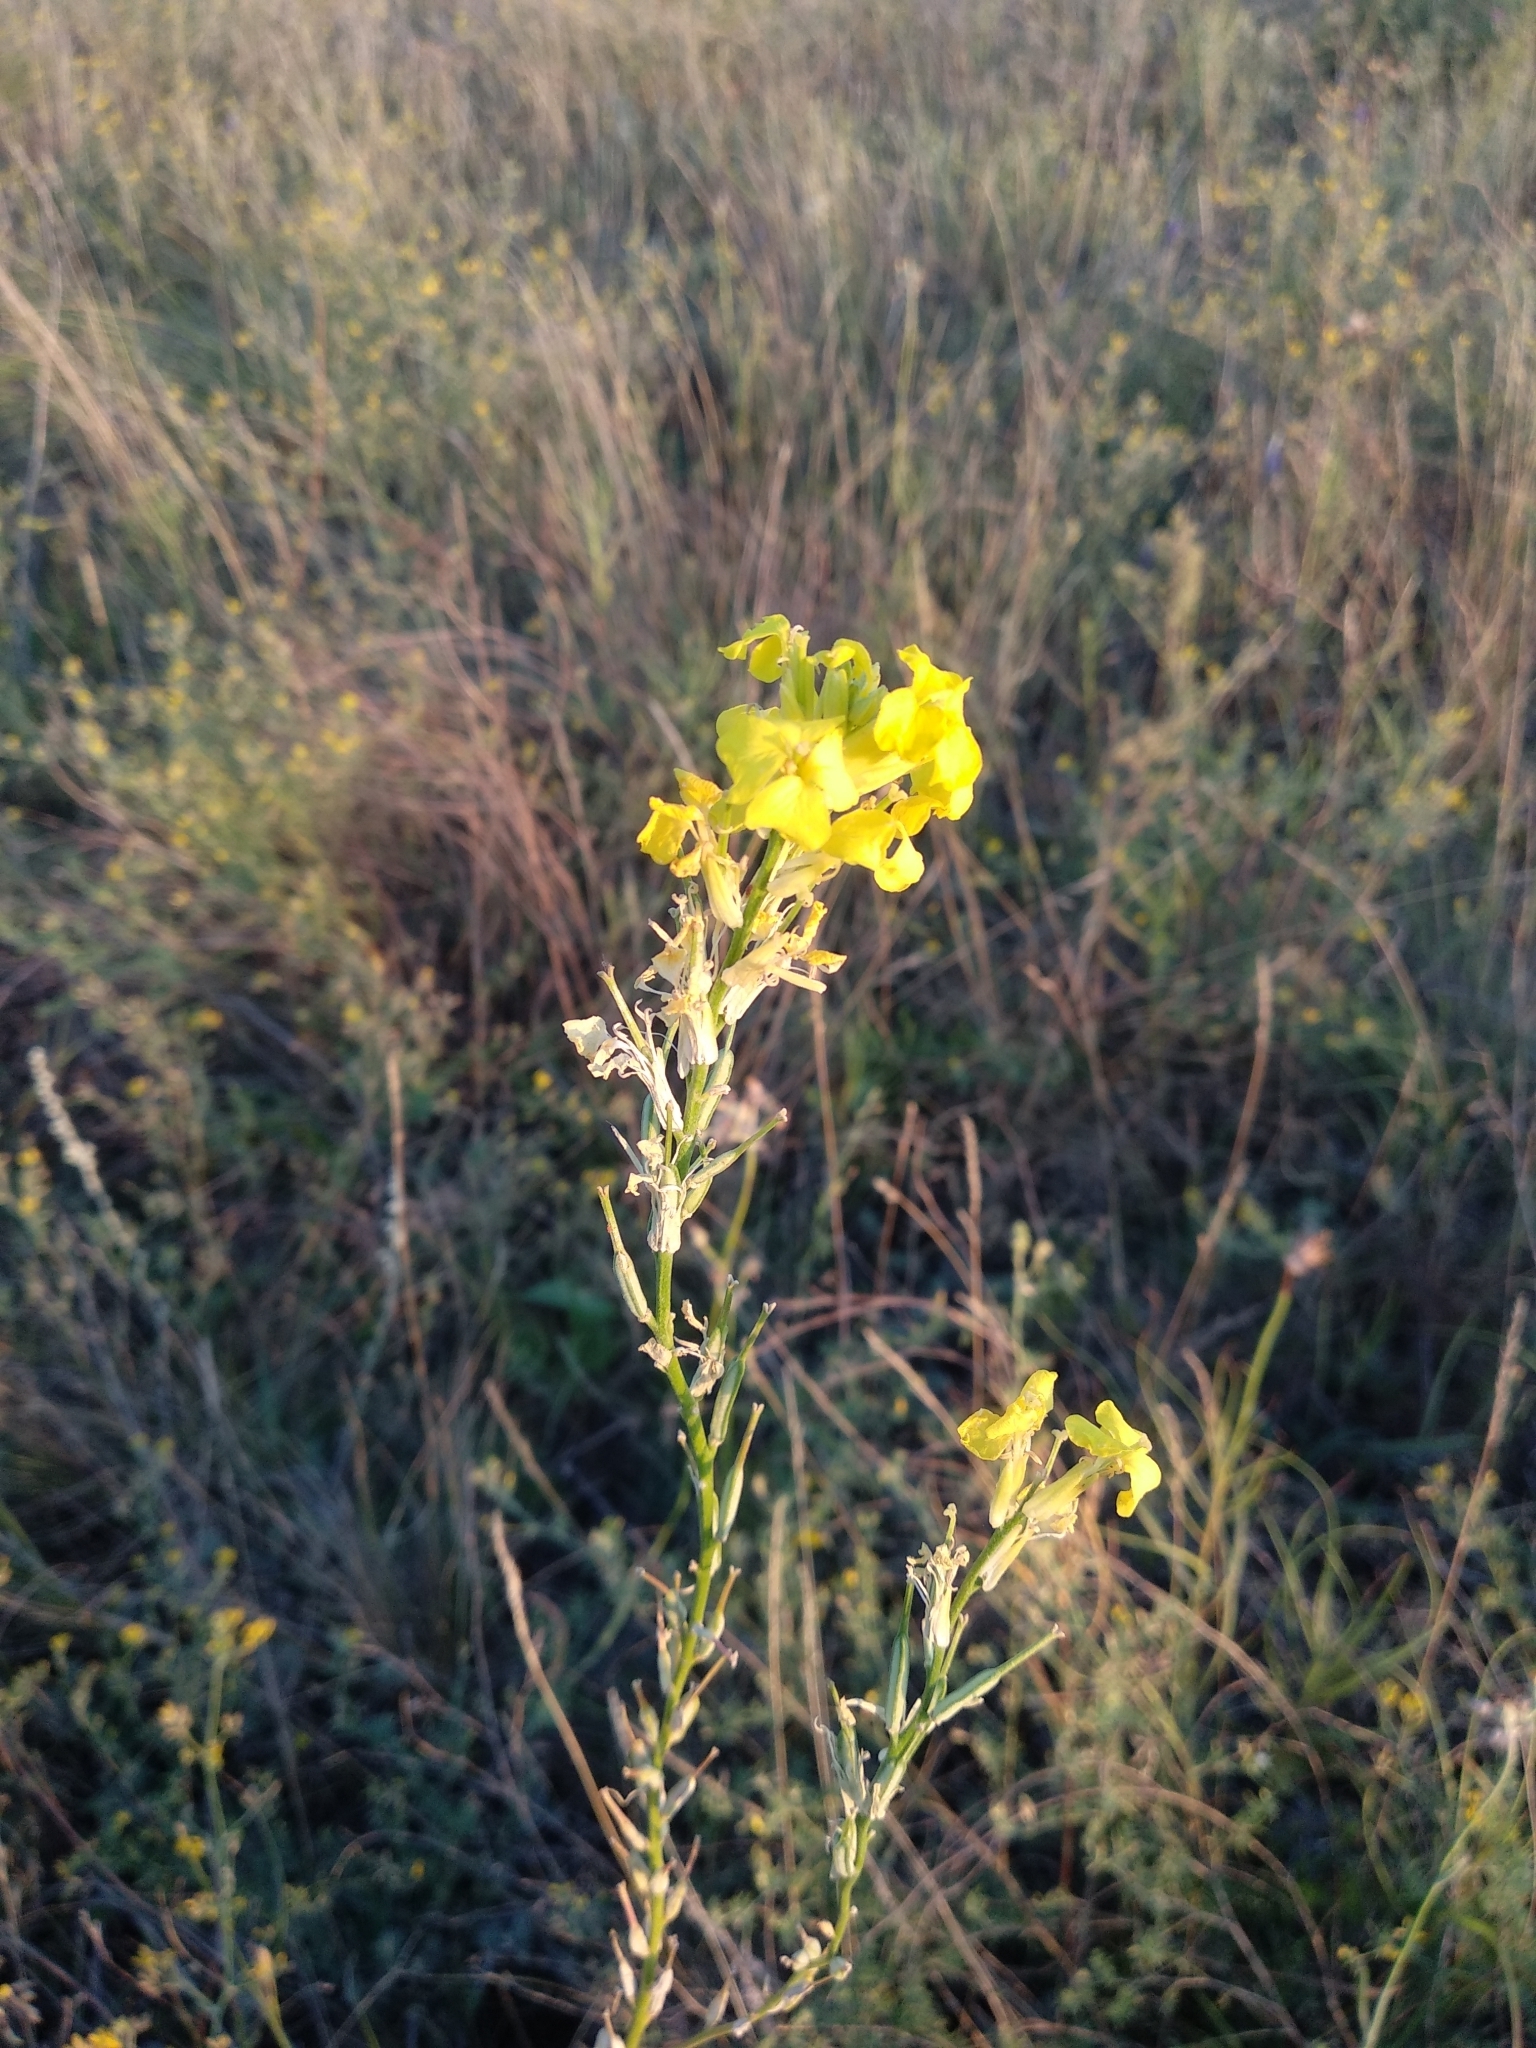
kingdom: Plantae
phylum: Tracheophyta
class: Magnoliopsida
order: Brassicales
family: Brassicaceae
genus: Erysimum
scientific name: Erysimum quadrangulum
